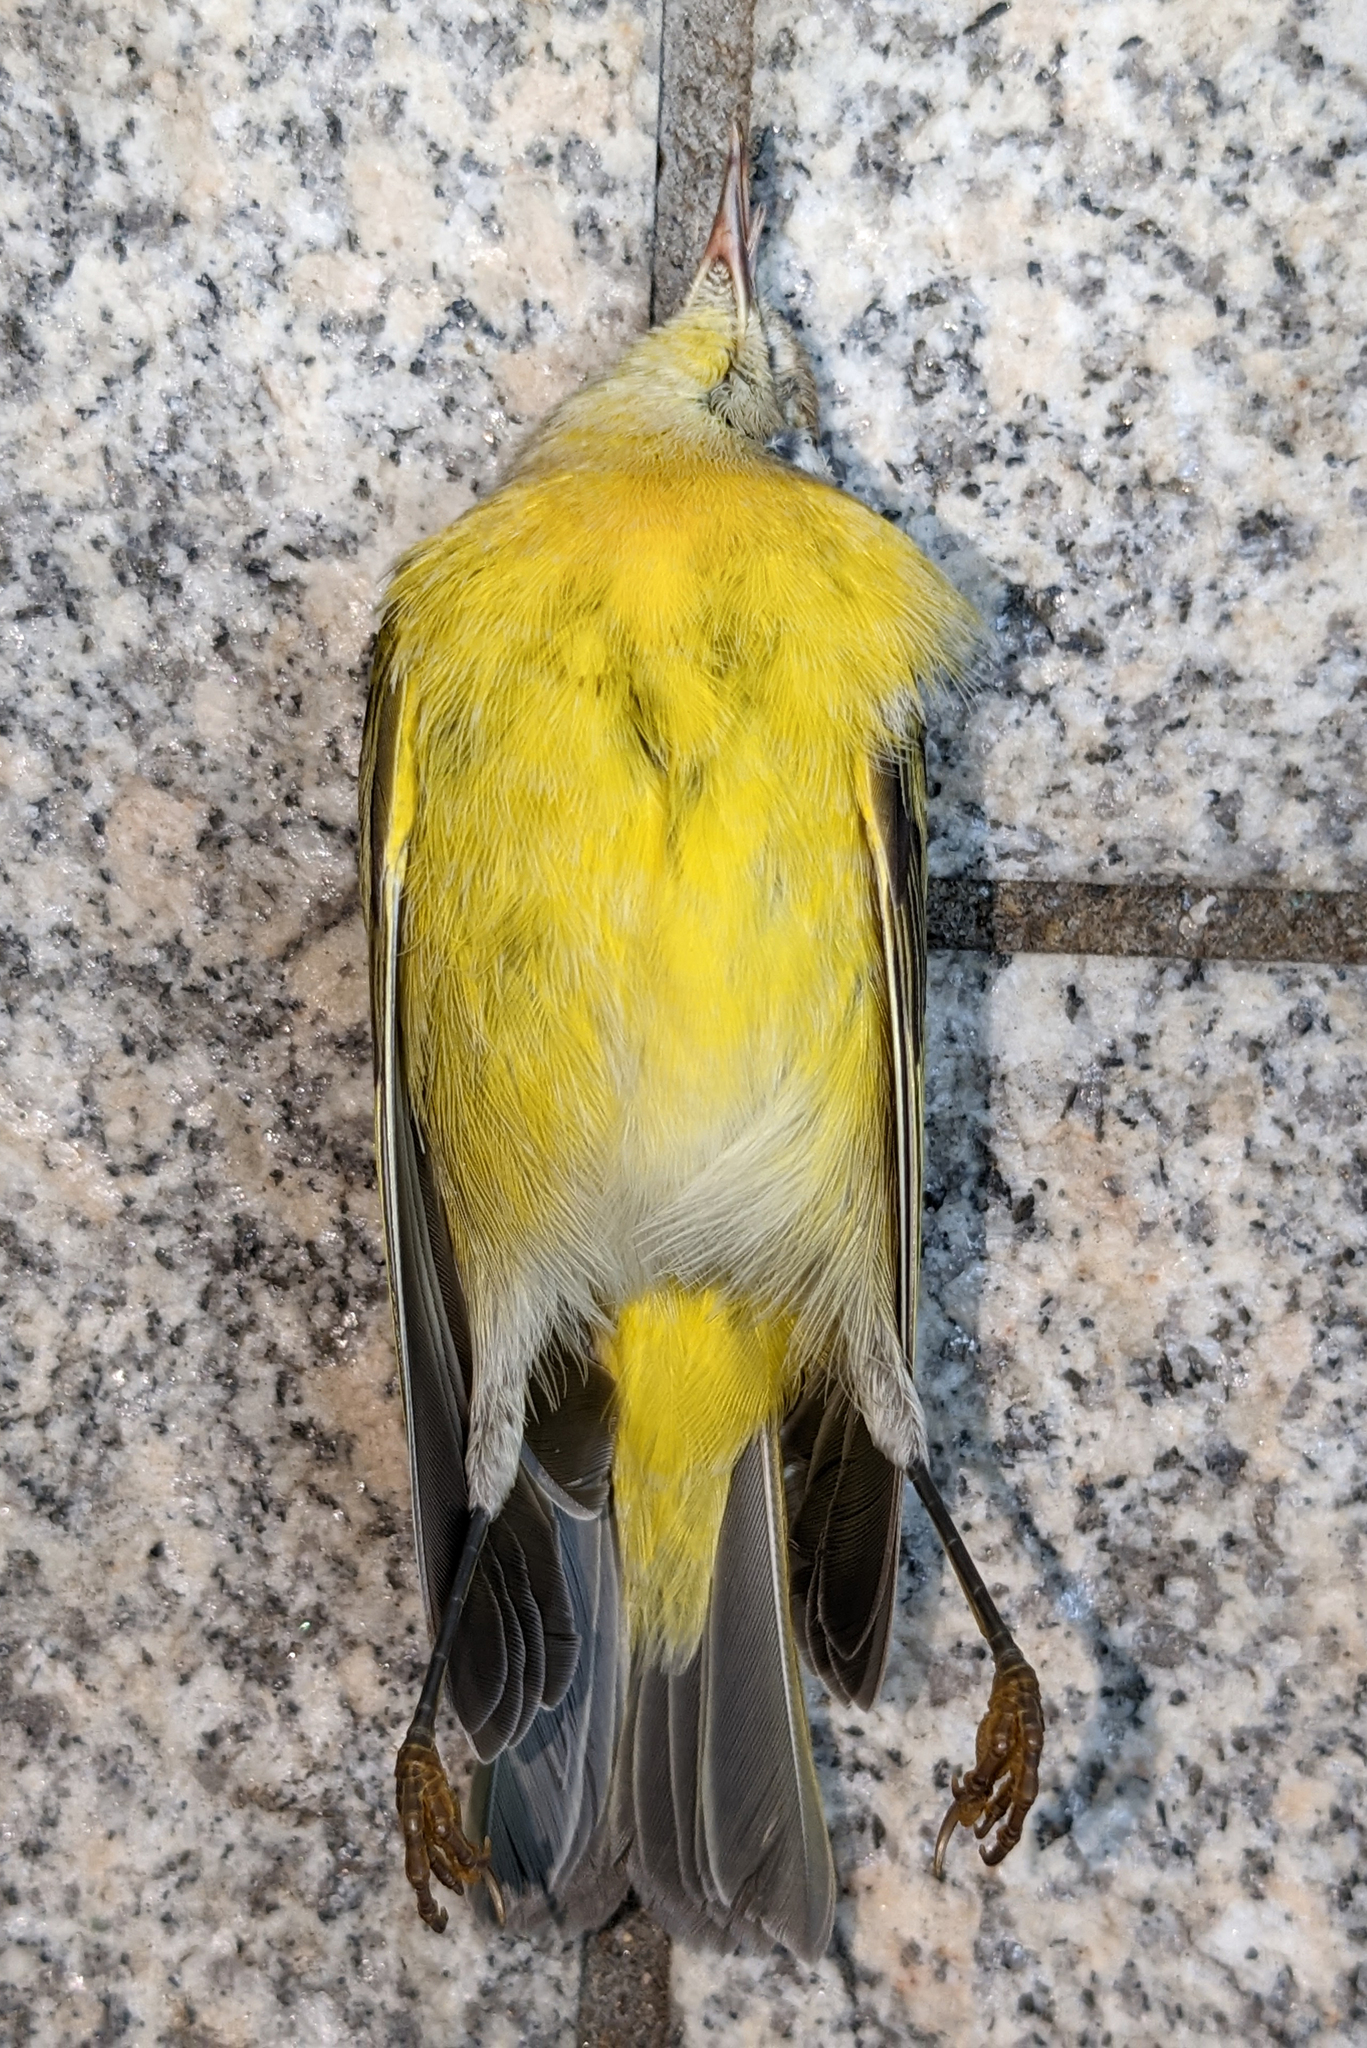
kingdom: Animalia
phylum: Chordata
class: Aves
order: Passeriformes
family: Parulidae
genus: Leiothlypis
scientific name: Leiothlypis ruficapilla
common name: Nashville warbler
